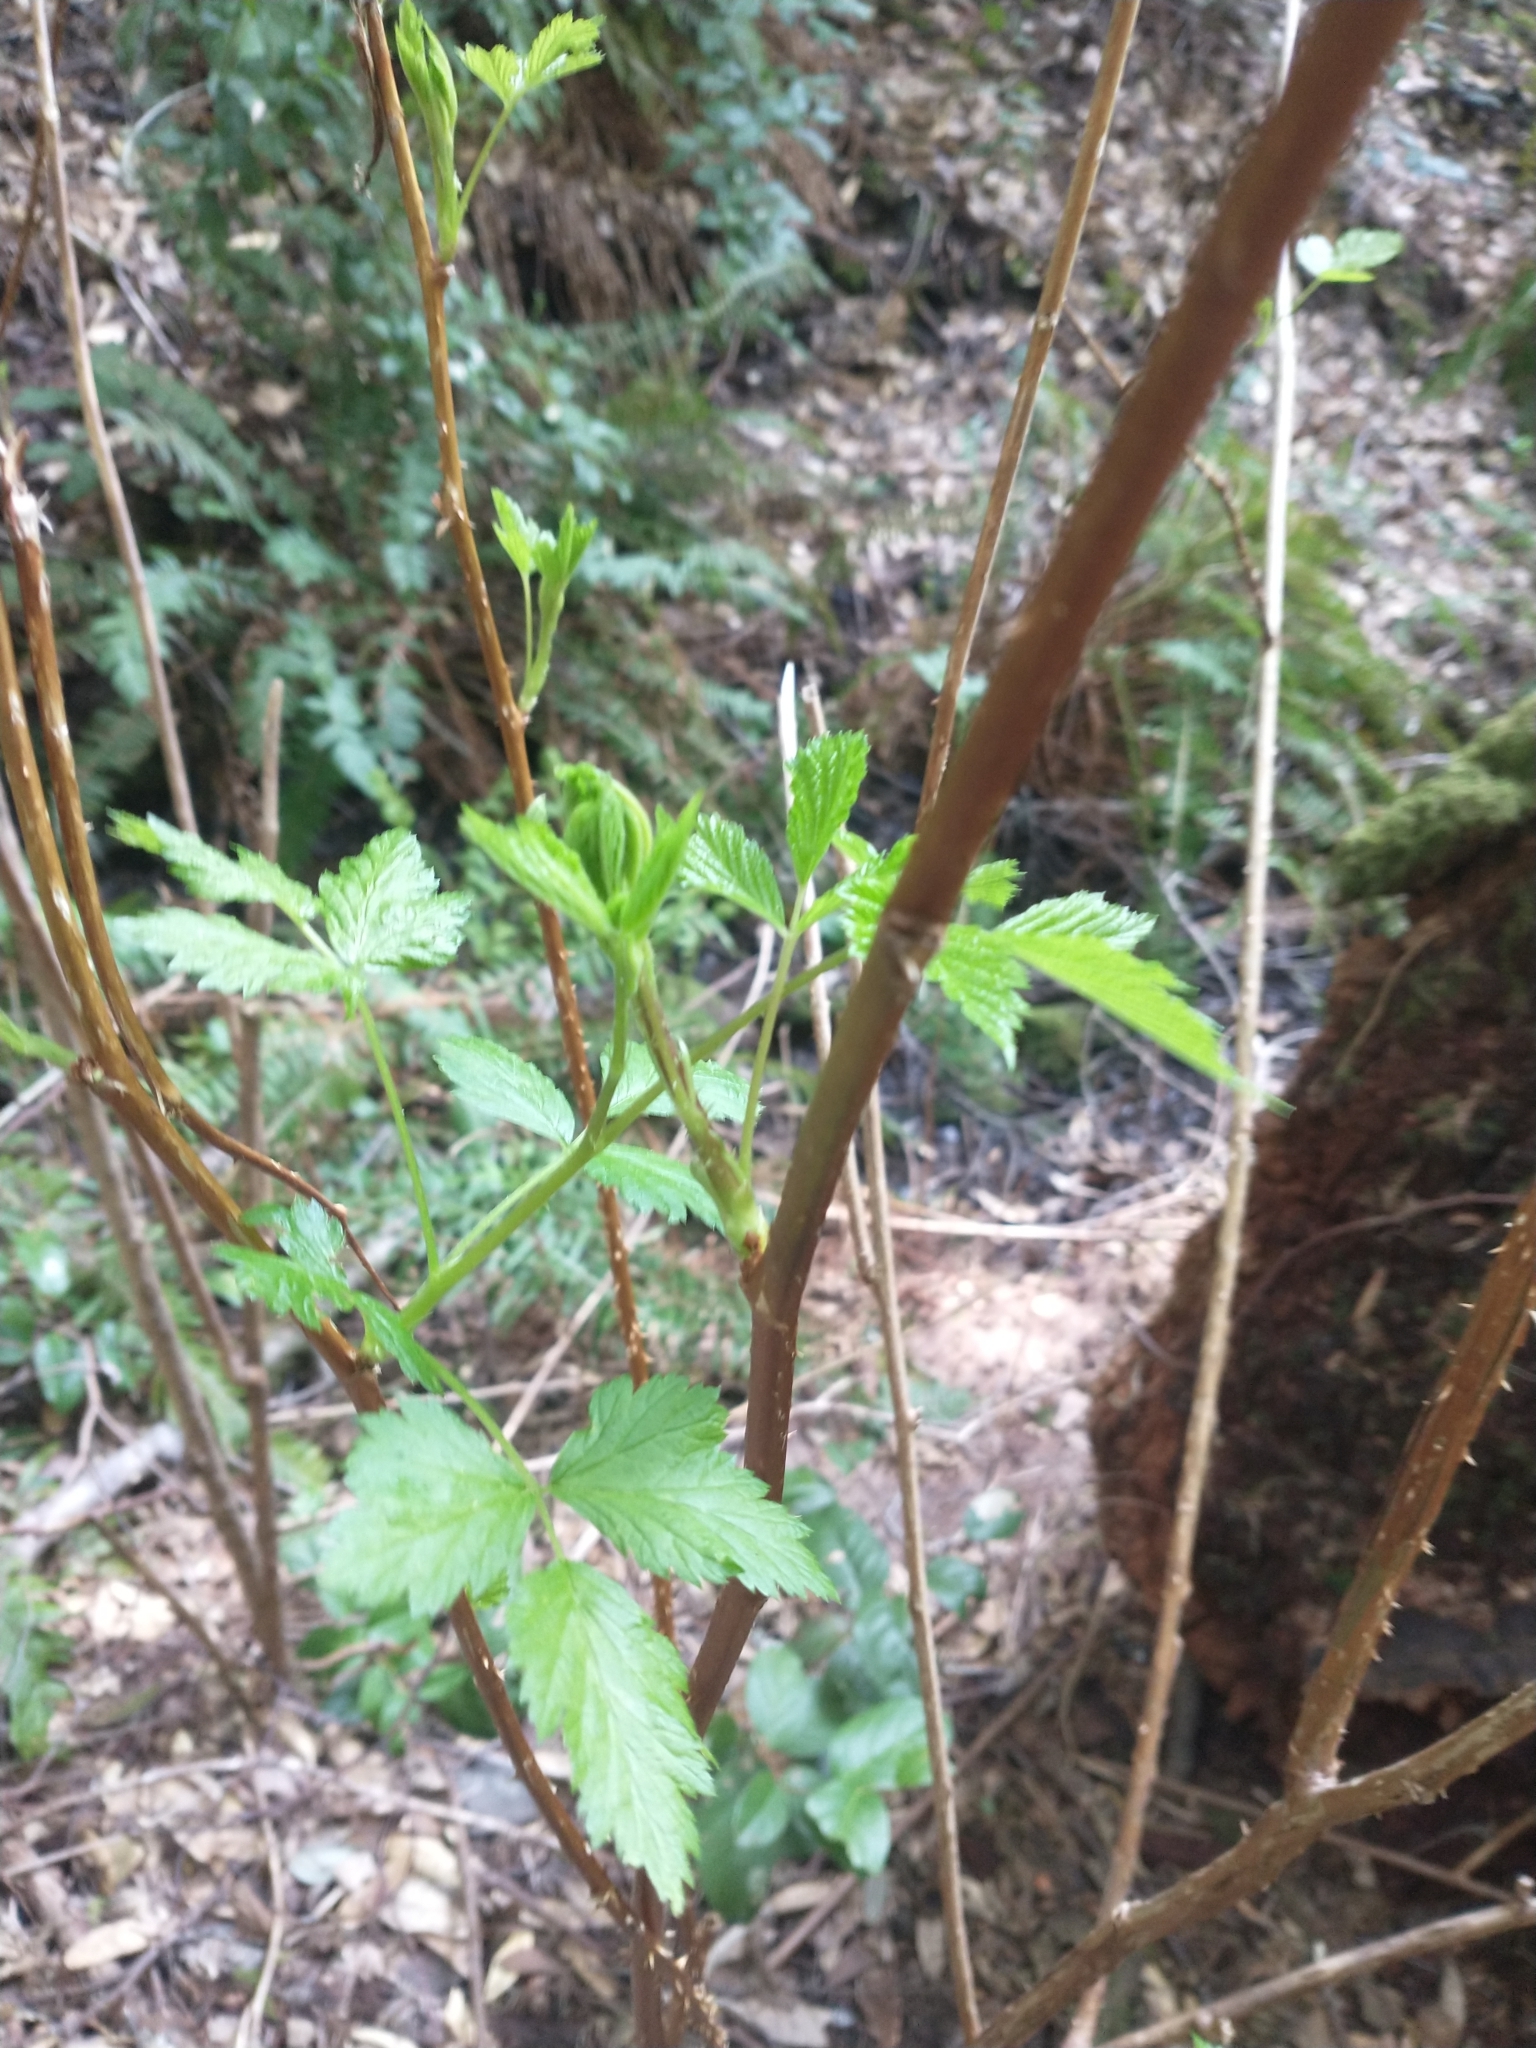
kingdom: Plantae
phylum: Tracheophyta
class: Magnoliopsida
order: Rosales
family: Rosaceae
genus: Rubus
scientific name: Rubus spectabilis
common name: Salmonberry
